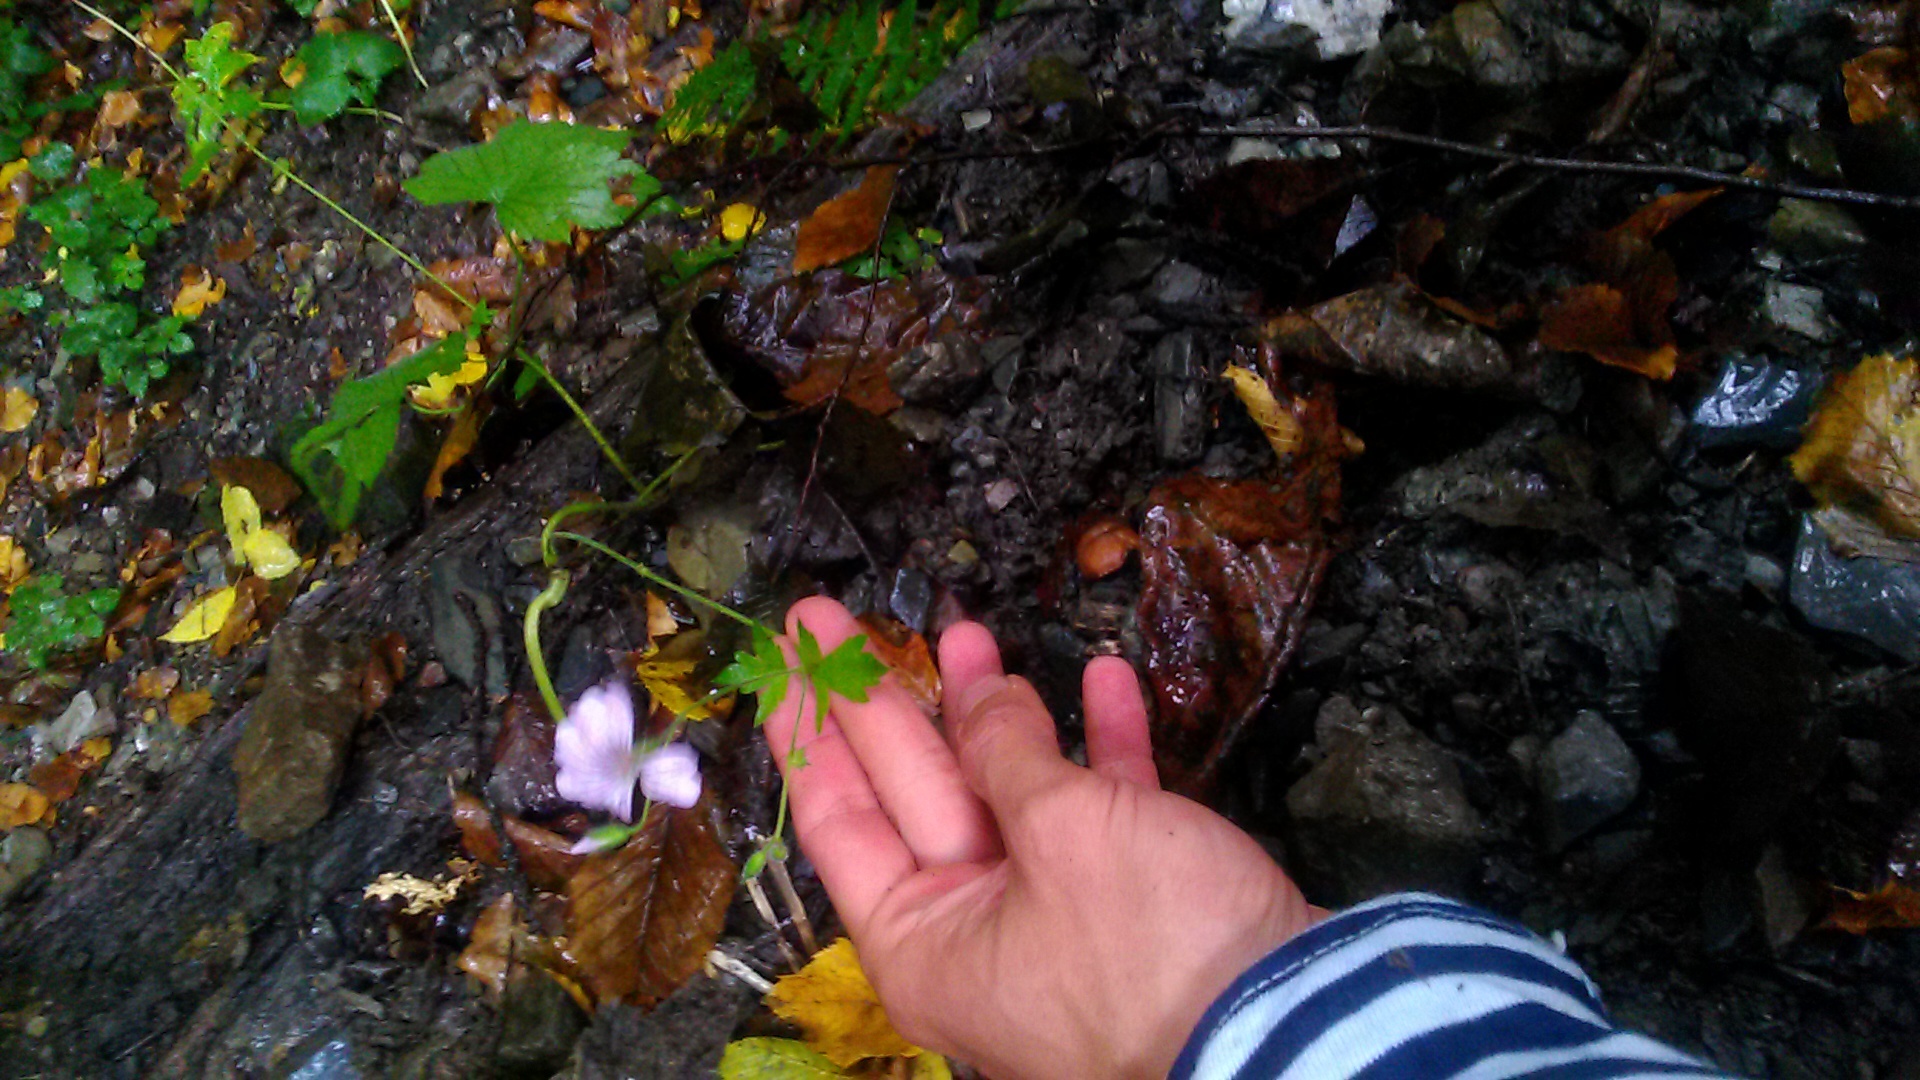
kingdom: Plantae
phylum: Tracheophyta
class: Magnoliopsida
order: Geraniales
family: Geraniaceae
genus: Geranium
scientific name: Geranium gracile
